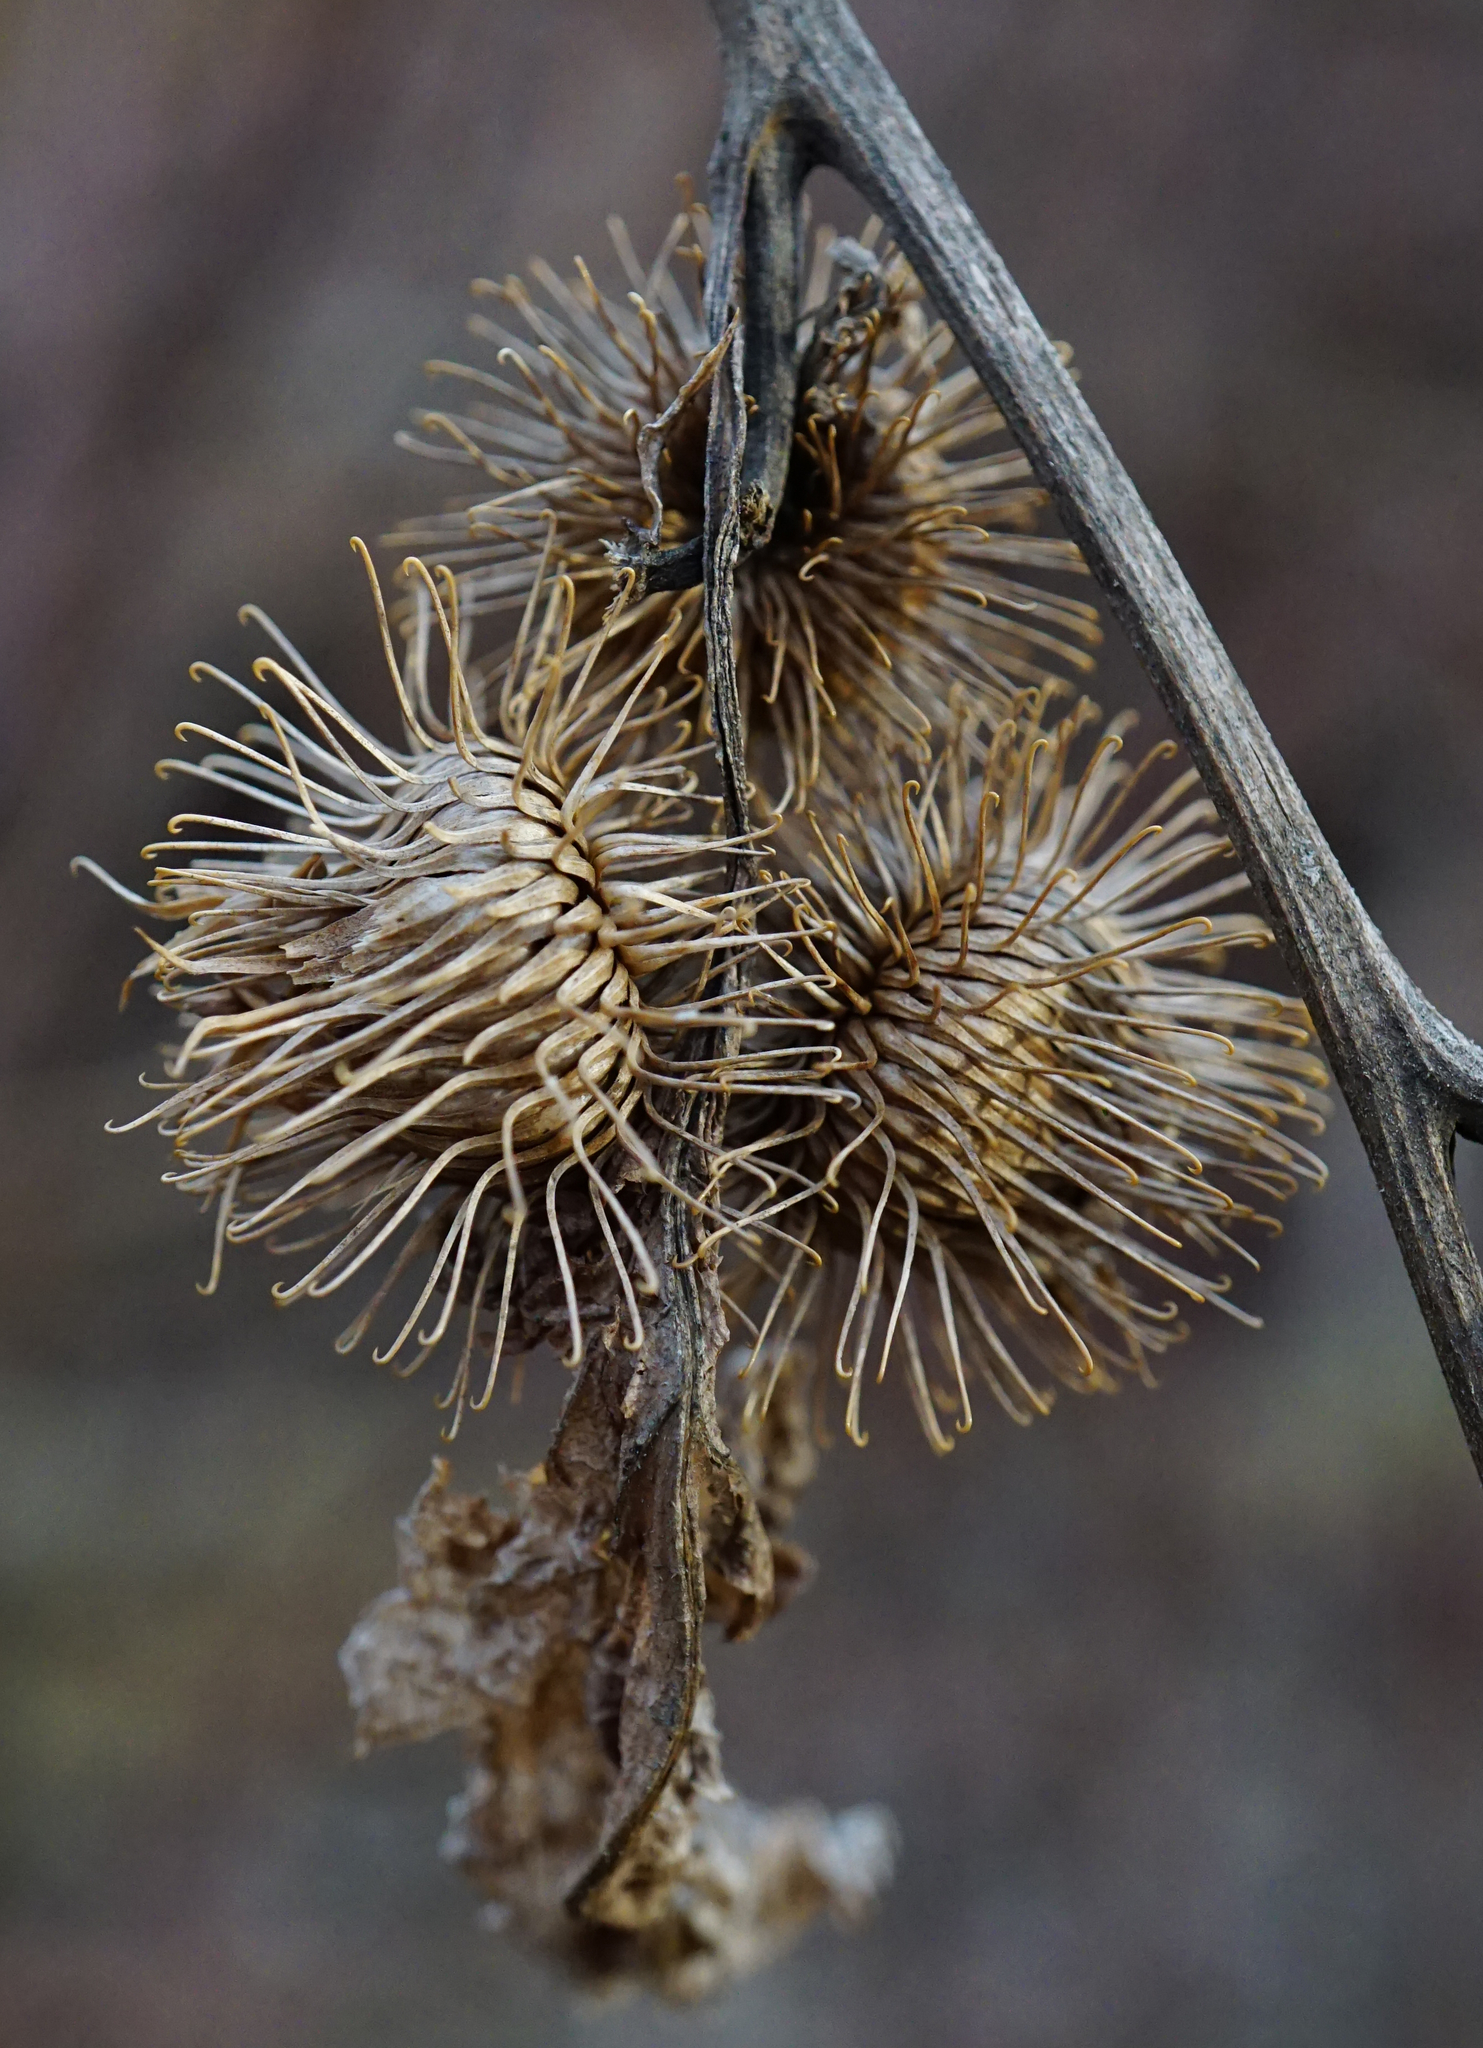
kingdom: Plantae
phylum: Tracheophyta
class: Magnoliopsida
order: Asterales
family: Asteraceae
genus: Arctium
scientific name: Arctium nemorosum
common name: Wood burdock
